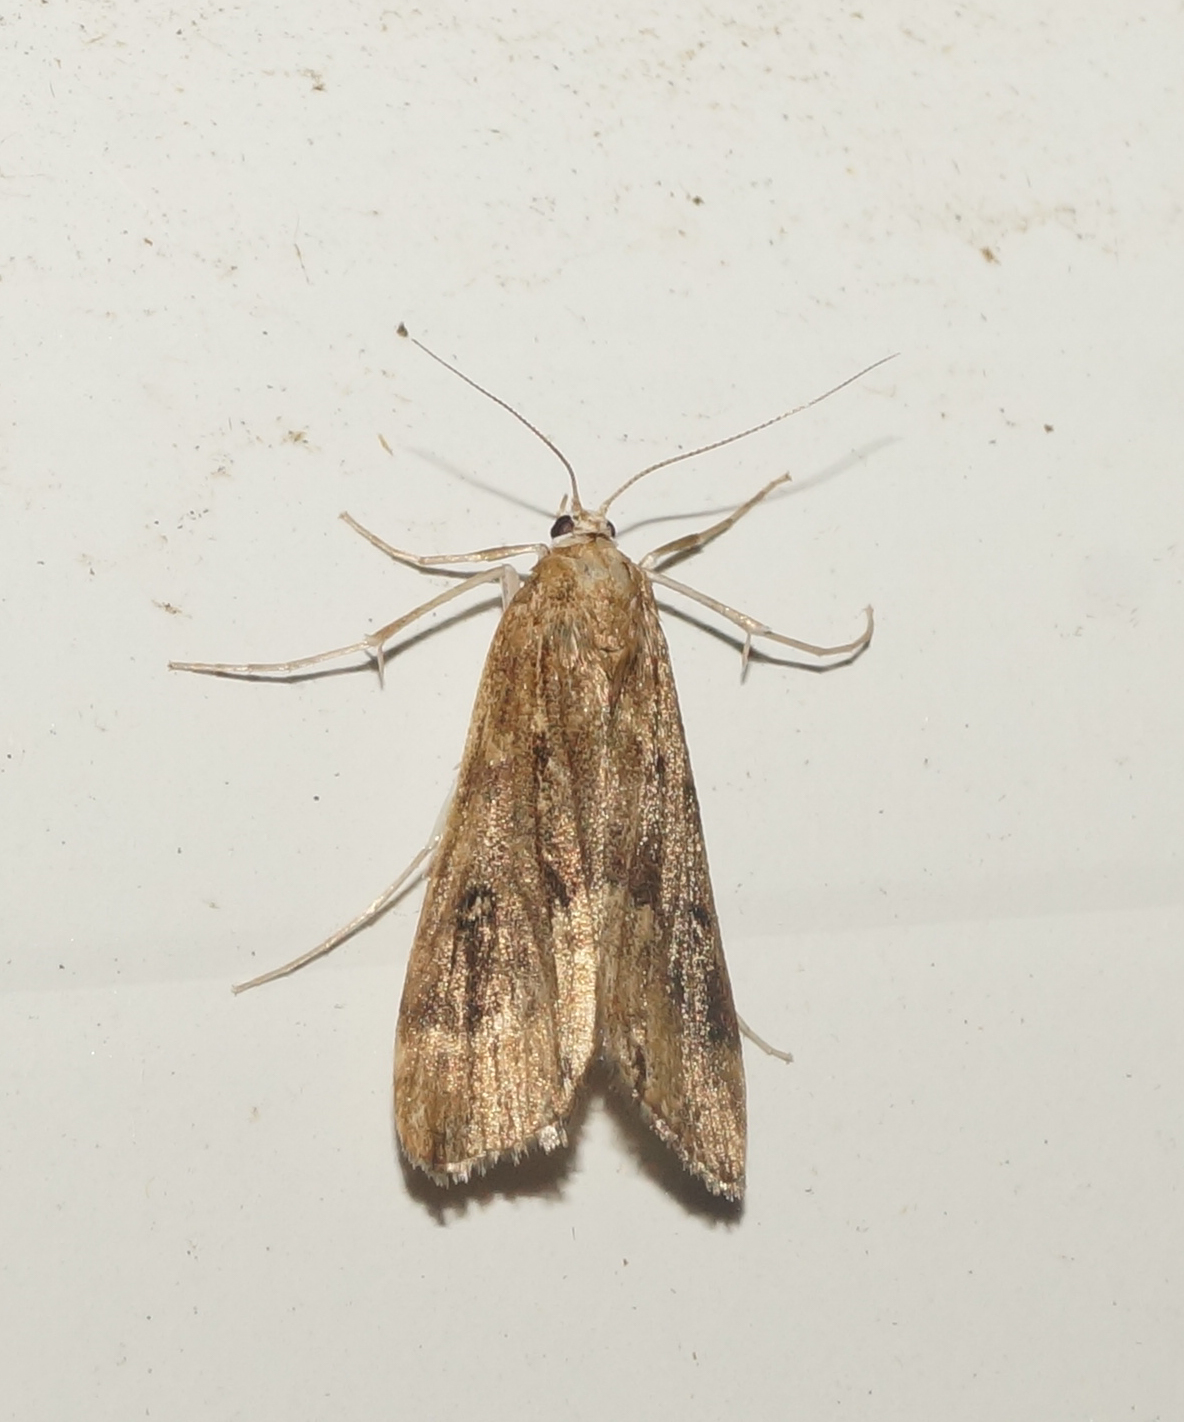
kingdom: Animalia
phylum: Arthropoda
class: Insecta
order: Lepidoptera
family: Crambidae
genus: Parapoynx
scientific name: Parapoynx stratiotata
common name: Ringed china-mark
